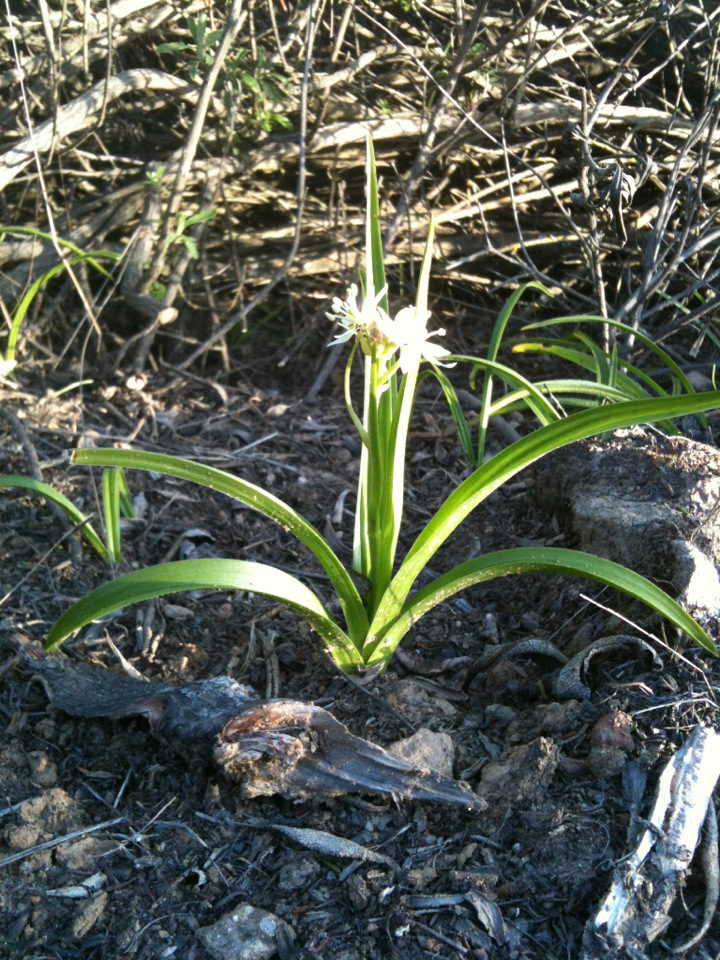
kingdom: Plantae
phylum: Tracheophyta
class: Liliopsida
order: Liliales
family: Melanthiaceae
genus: Toxicoscordion
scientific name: Toxicoscordion fremontii
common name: Fremont's death camas
